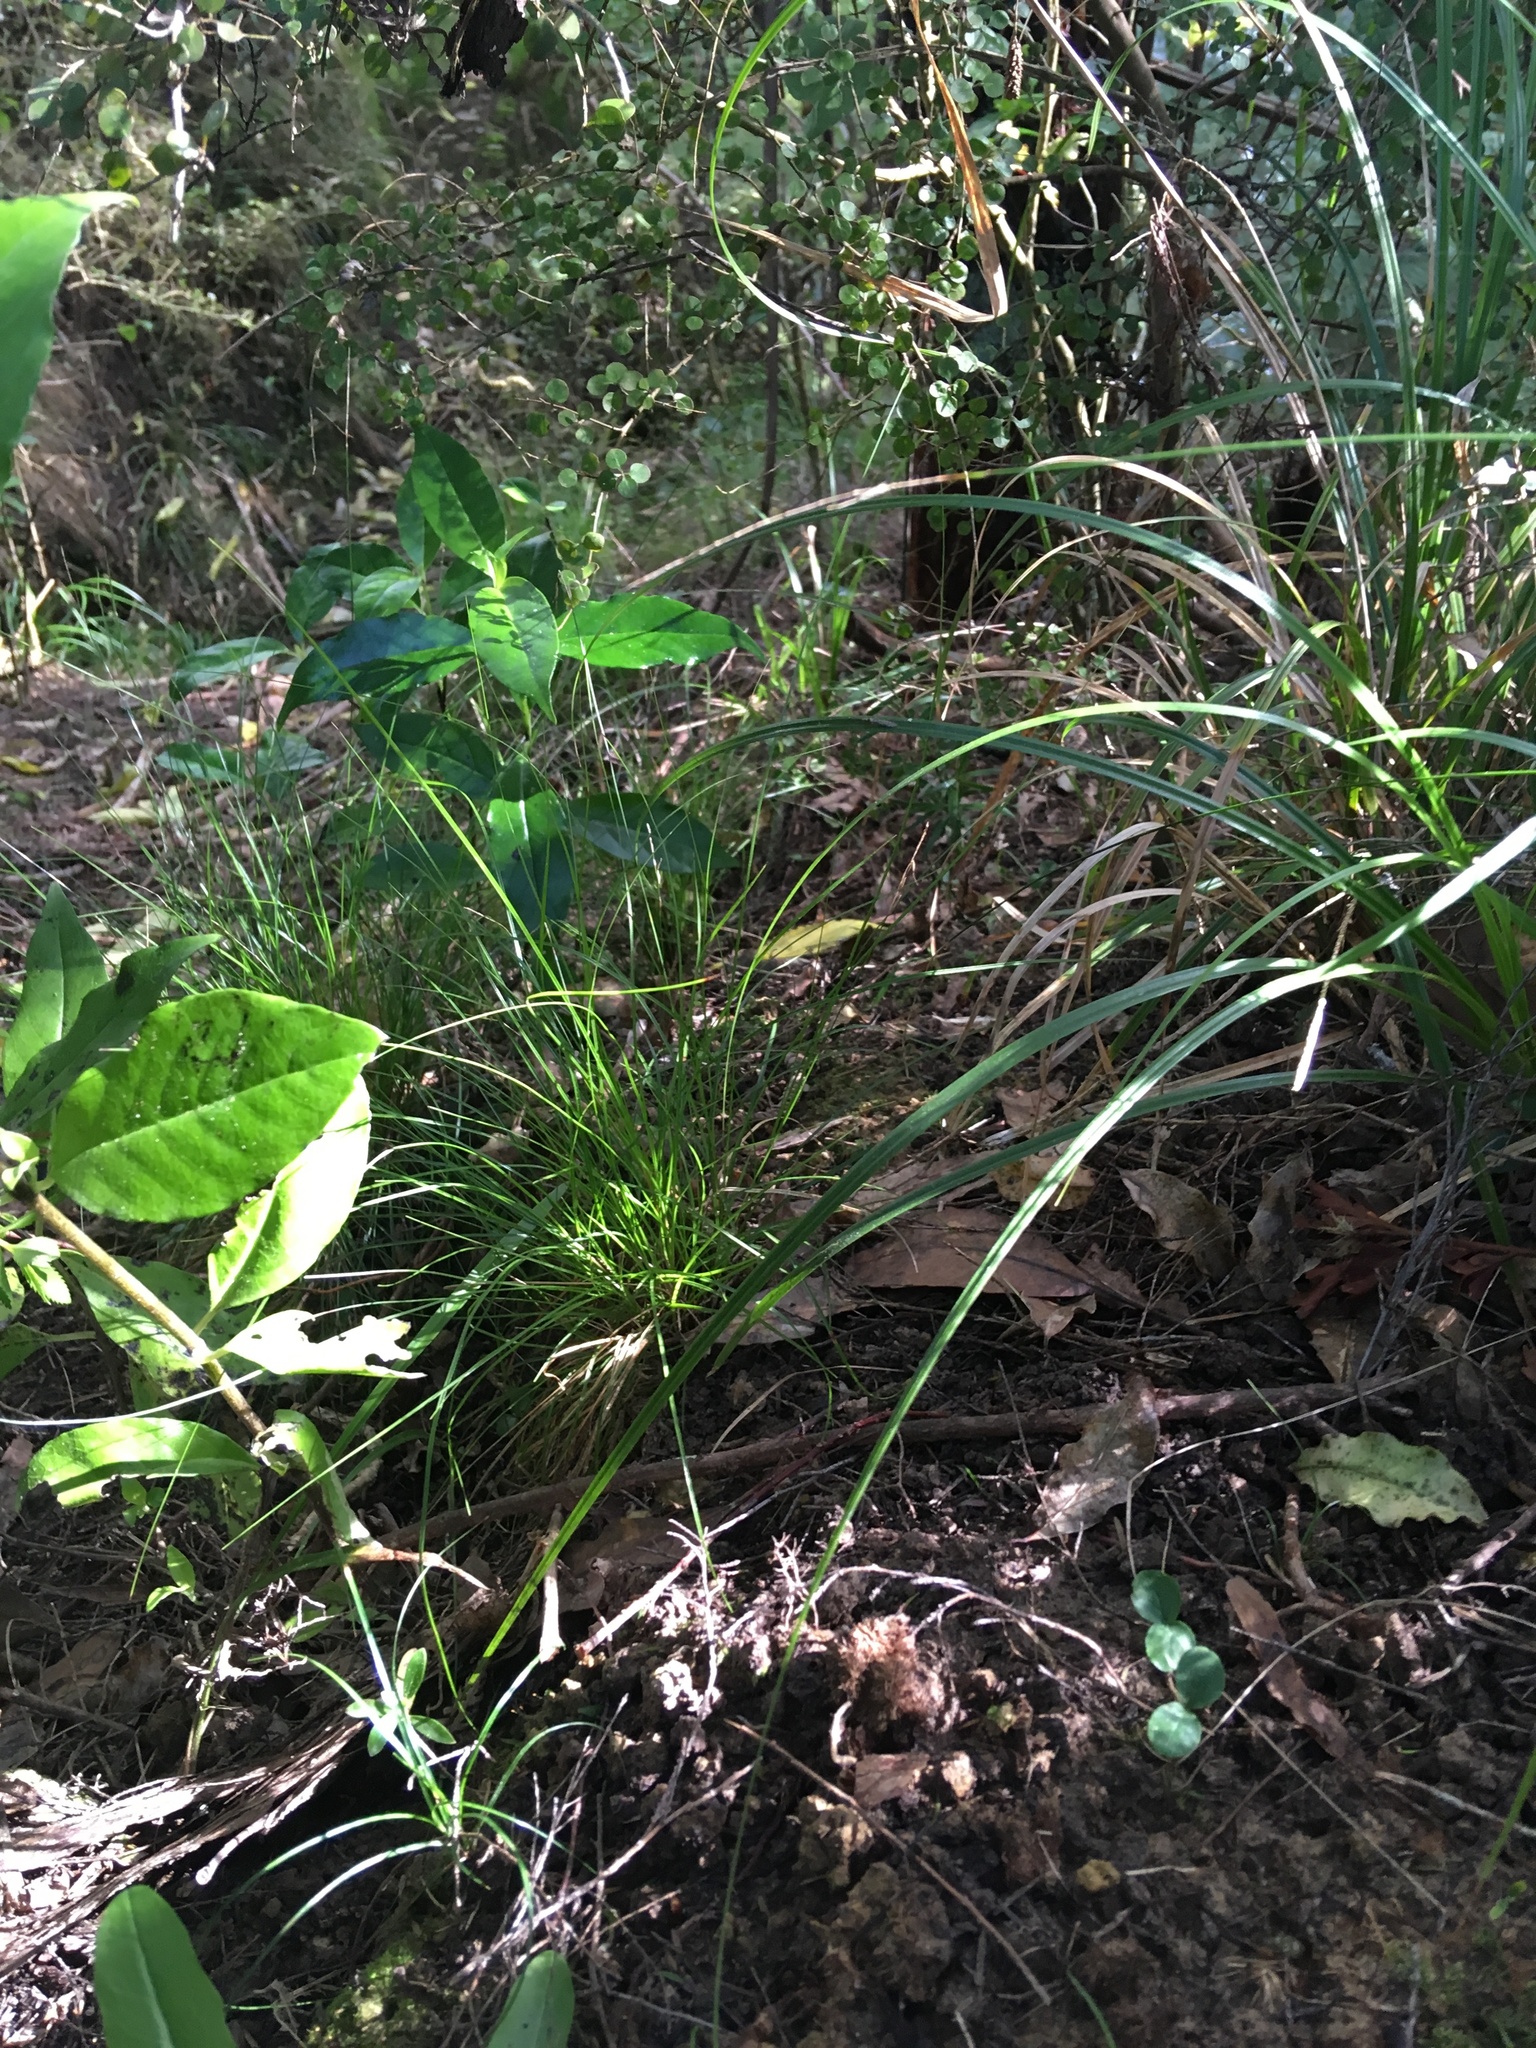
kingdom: Plantae
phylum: Tracheophyta
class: Magnoliopsida
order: Lamiales
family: Oleaceae
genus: Ligustrum
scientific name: Ligustrum sinense
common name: Chinese privet
